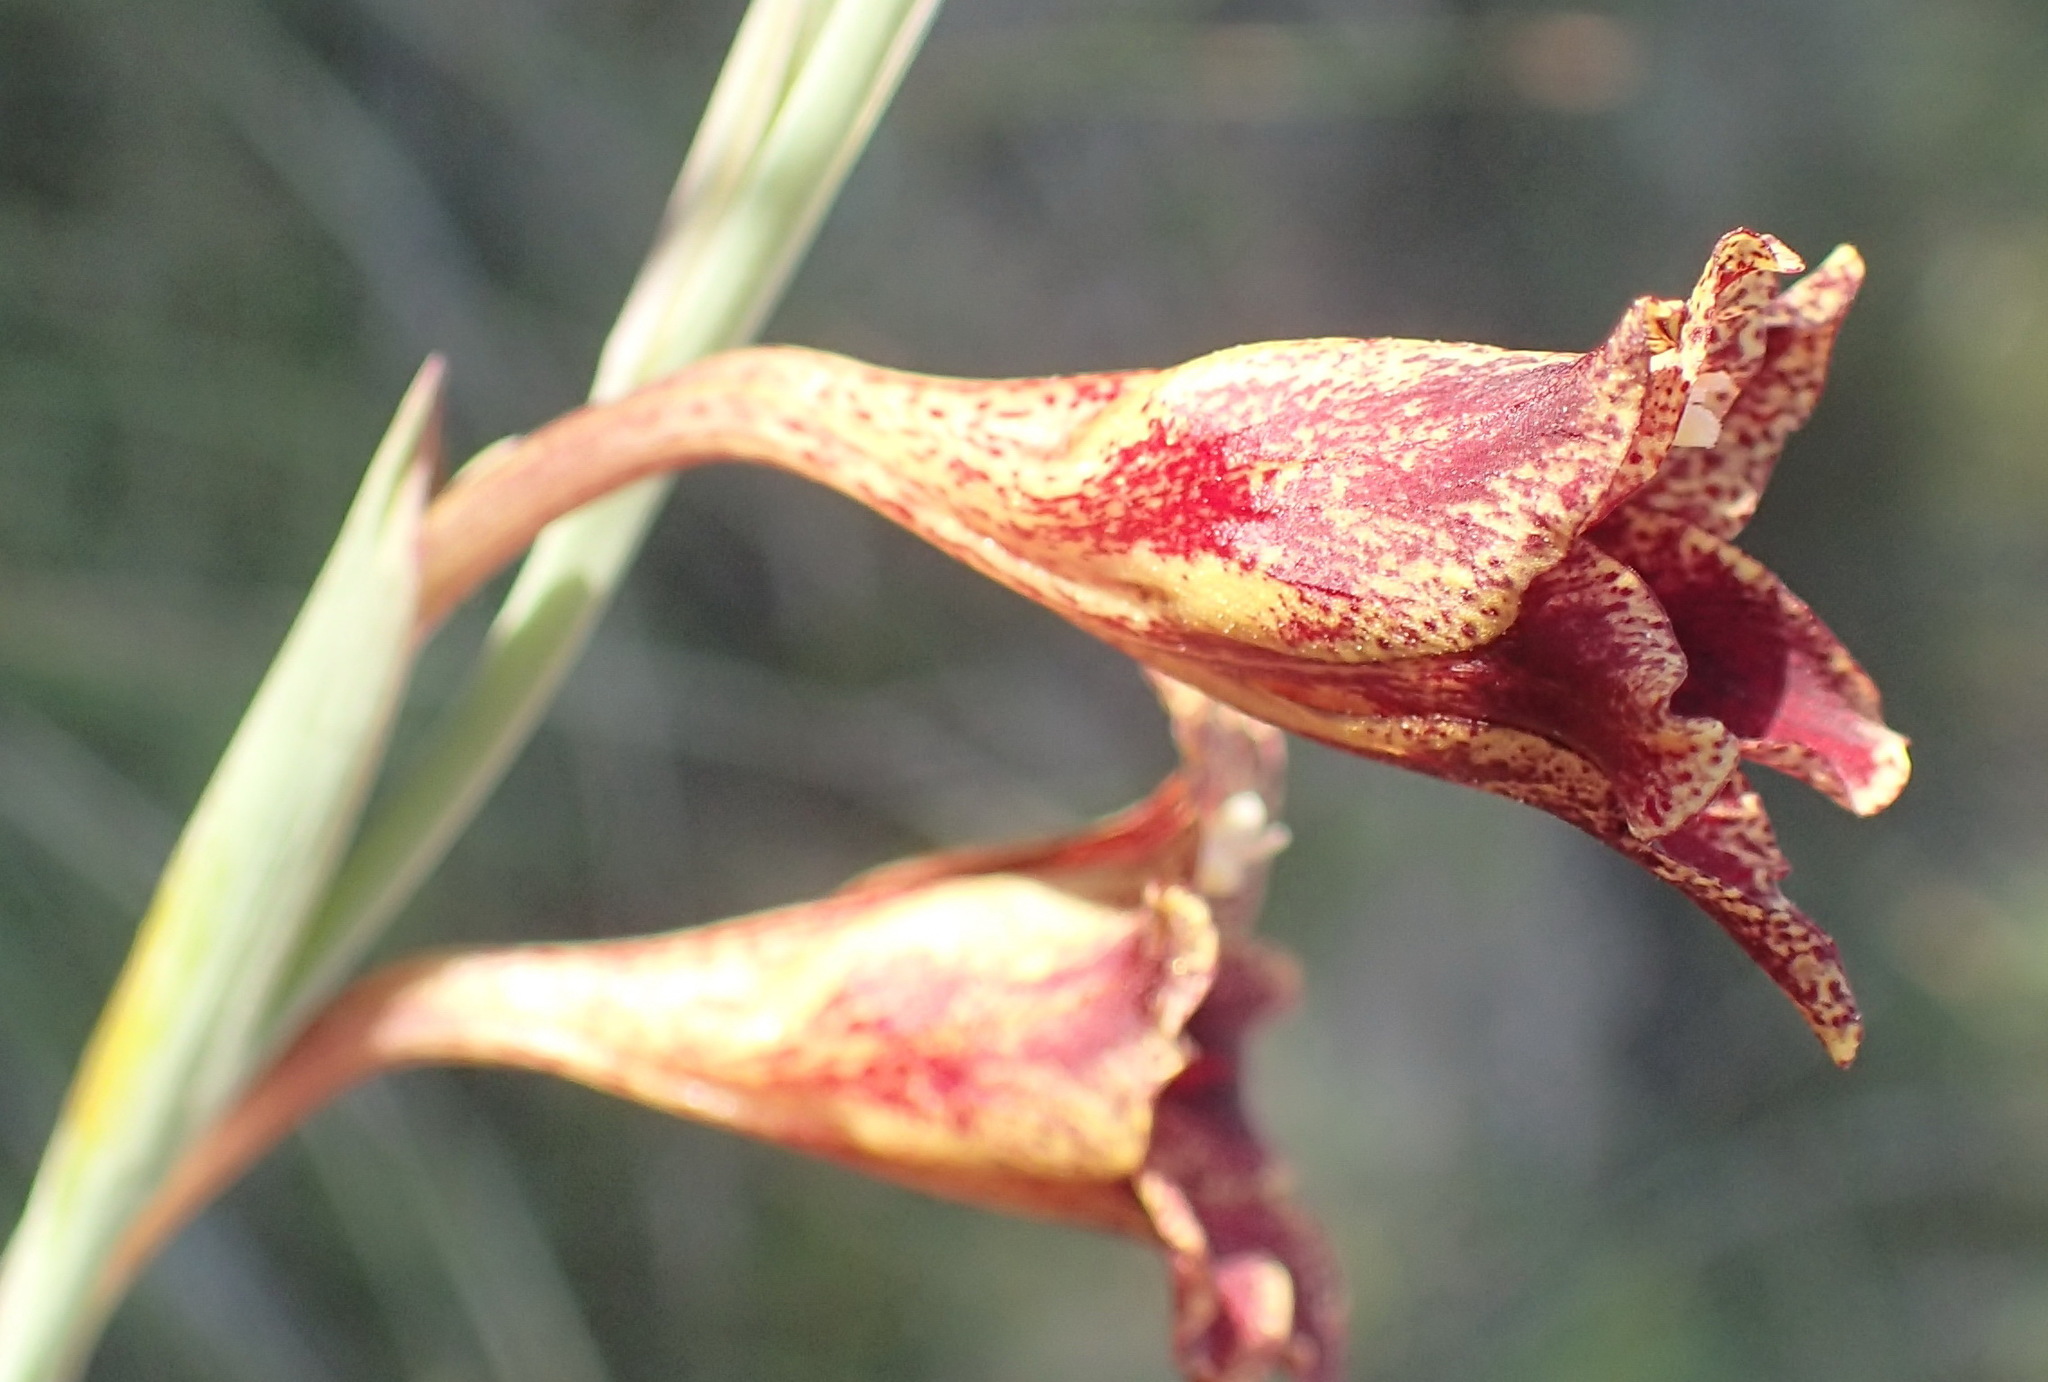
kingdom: Plantae
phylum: Tracheophyta
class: Liliopsida
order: Asparagales
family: Iridaceae
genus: Gladiolus
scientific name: Gladiolus emiliae
